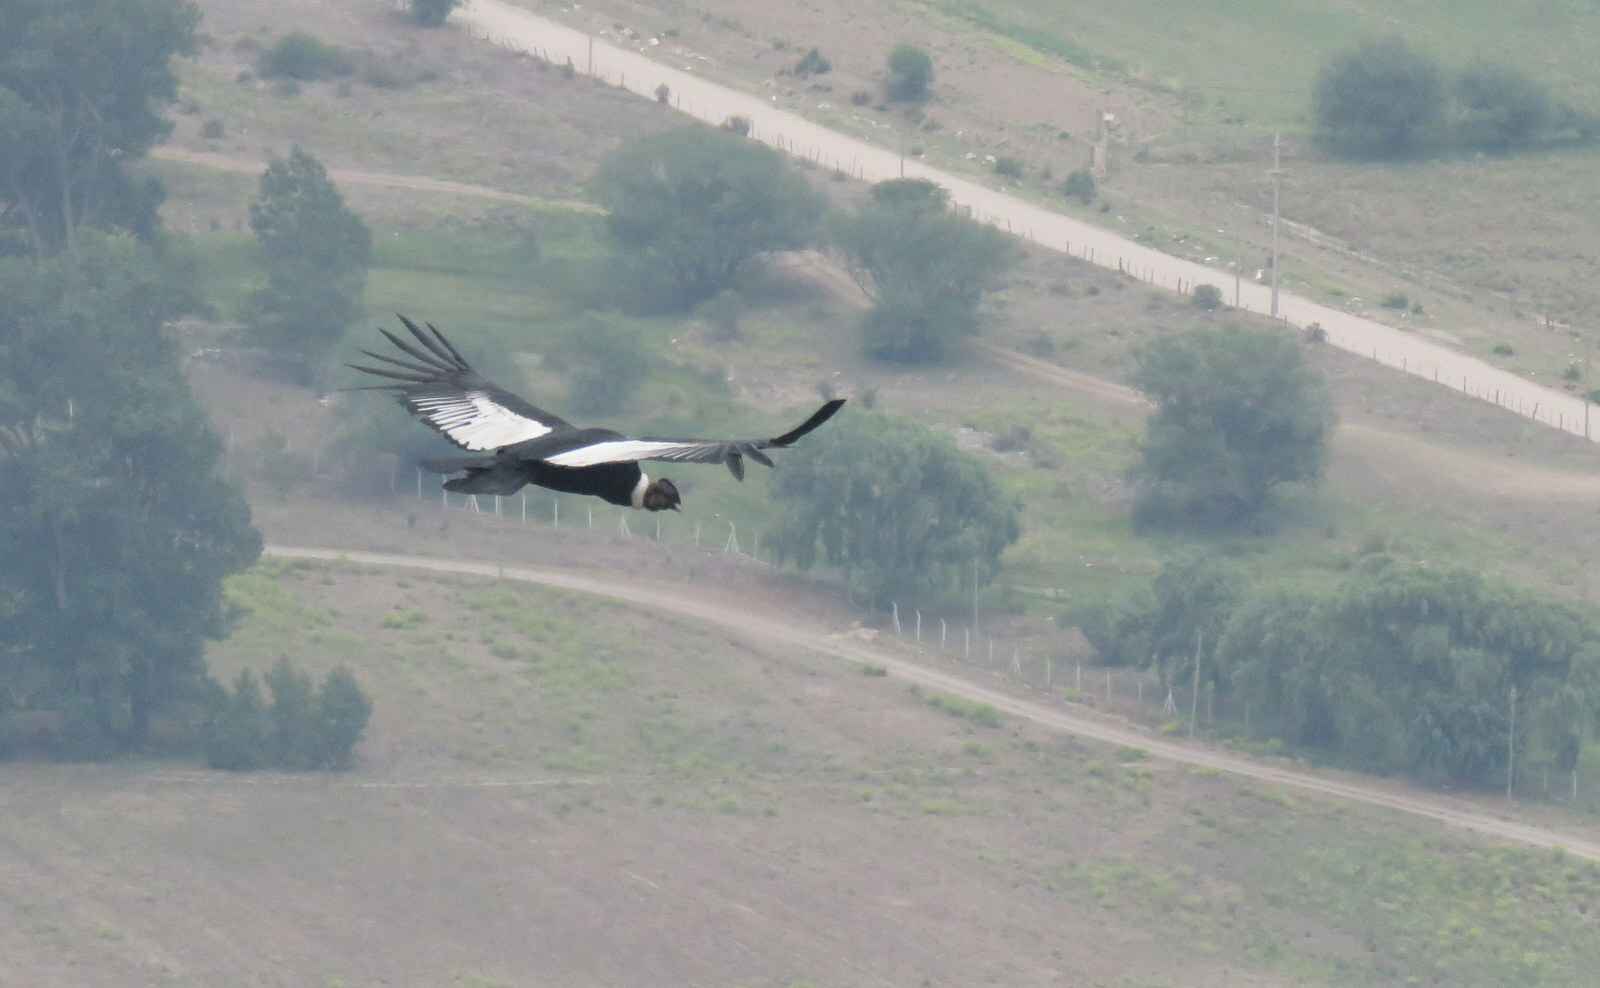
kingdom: Animalia
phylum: Chordata
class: Aves
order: Accipitriformes
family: Cathartidae
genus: Vultur
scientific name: Vultur gryphus
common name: Andean condor
